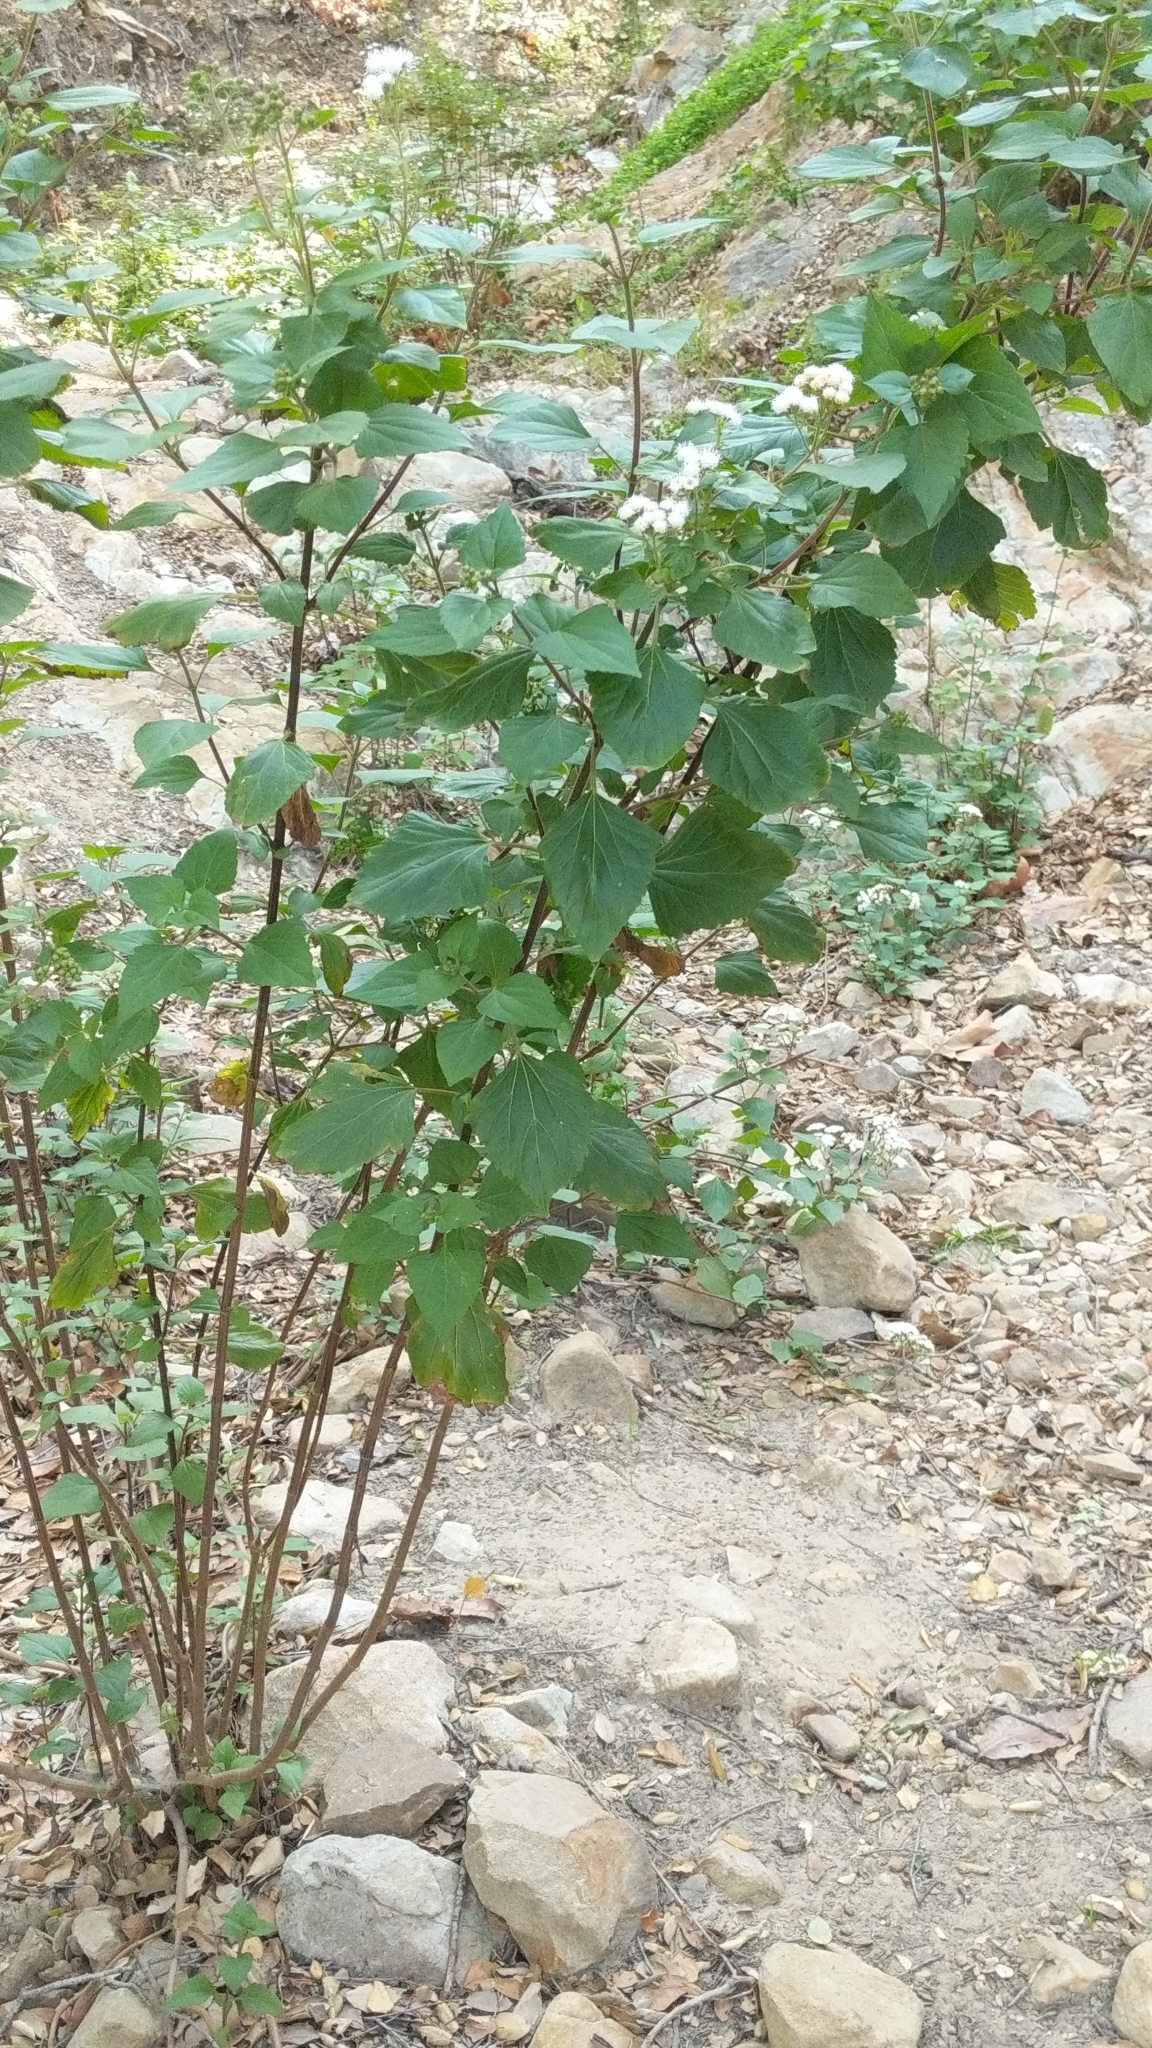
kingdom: Plantae
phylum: Tracheophyta
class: Magnoliopsida
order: Asterales
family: Asteraceae
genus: Ageratina
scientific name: Ageratina adenophora
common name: Sticky snakeroot
